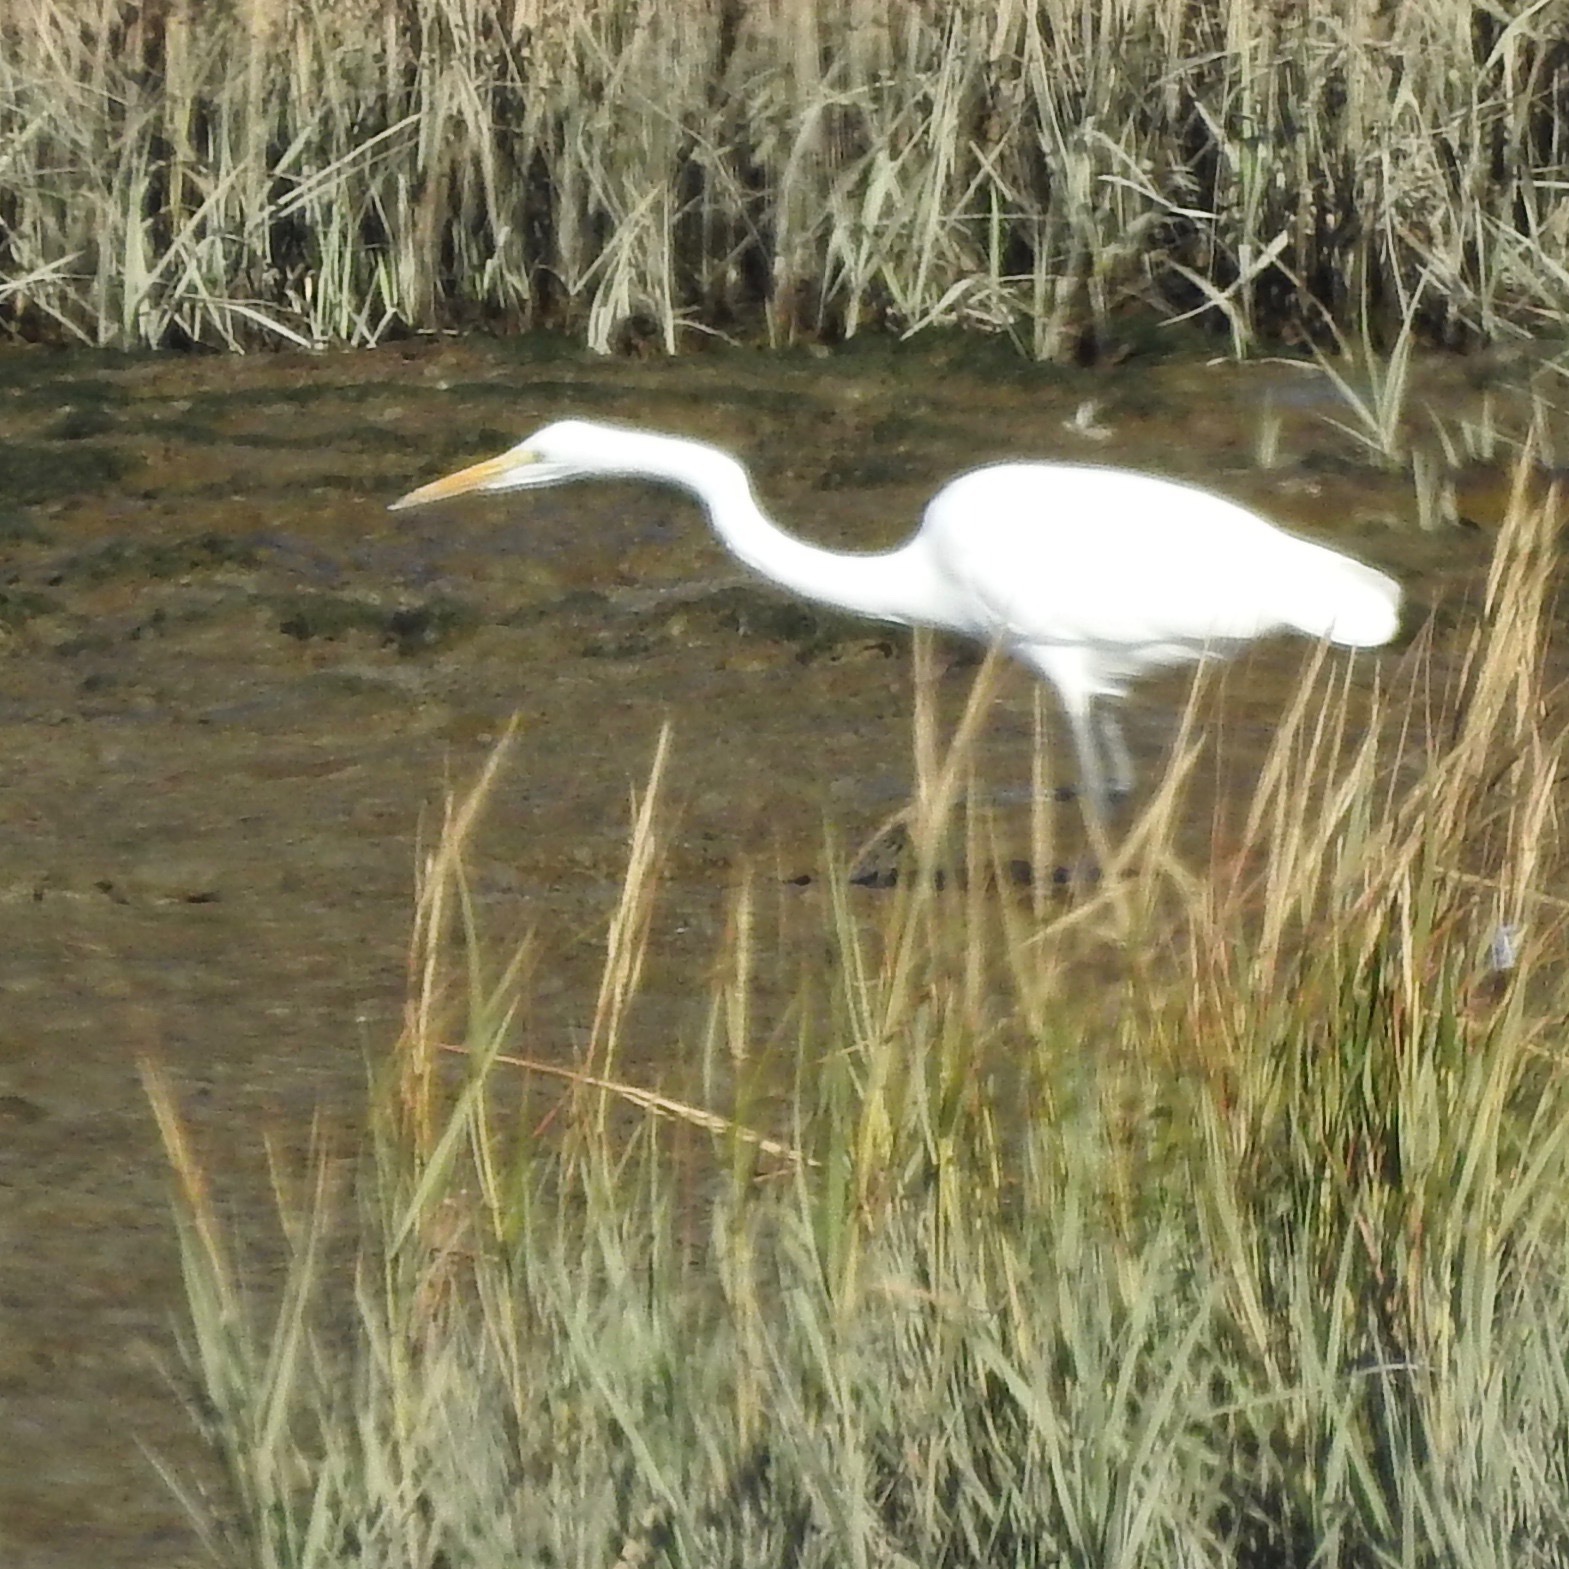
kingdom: Animalia
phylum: Chordata
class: Aves
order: Pelecaniformes
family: Ardeidae
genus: Ardea
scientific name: Ardea alba
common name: Great egret
